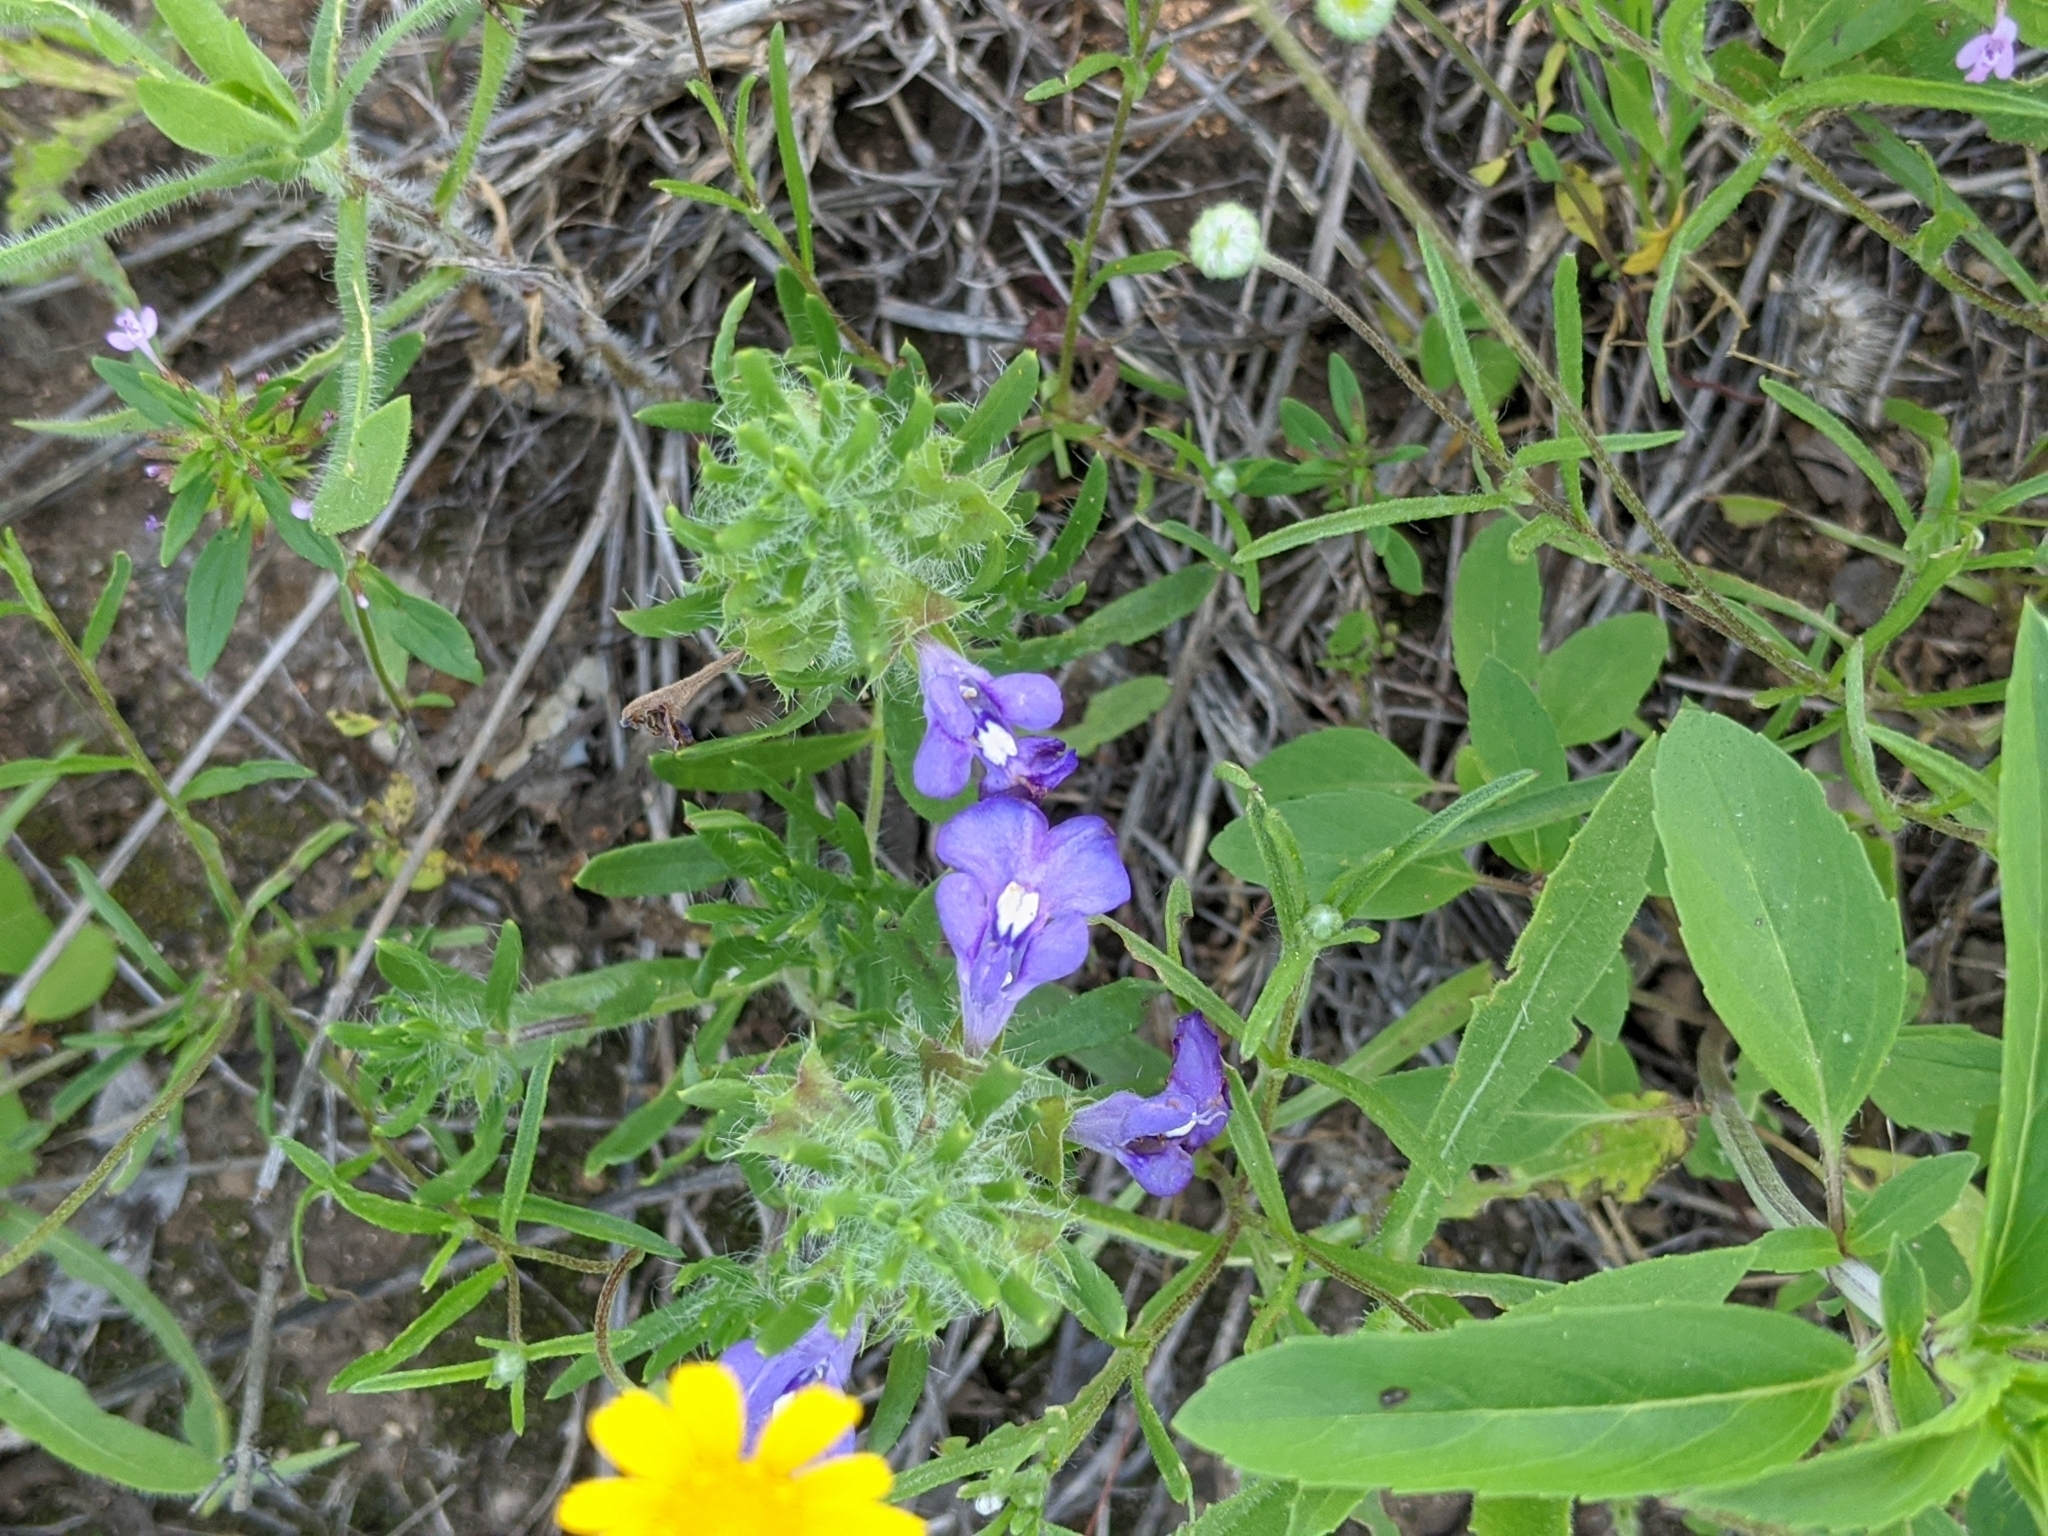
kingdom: Plantae
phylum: Tracheophyta
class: Magnoliopsida
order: Lamiales
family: Lamiaceae
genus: Salvia
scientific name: Salvia texana
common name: Texas sage
